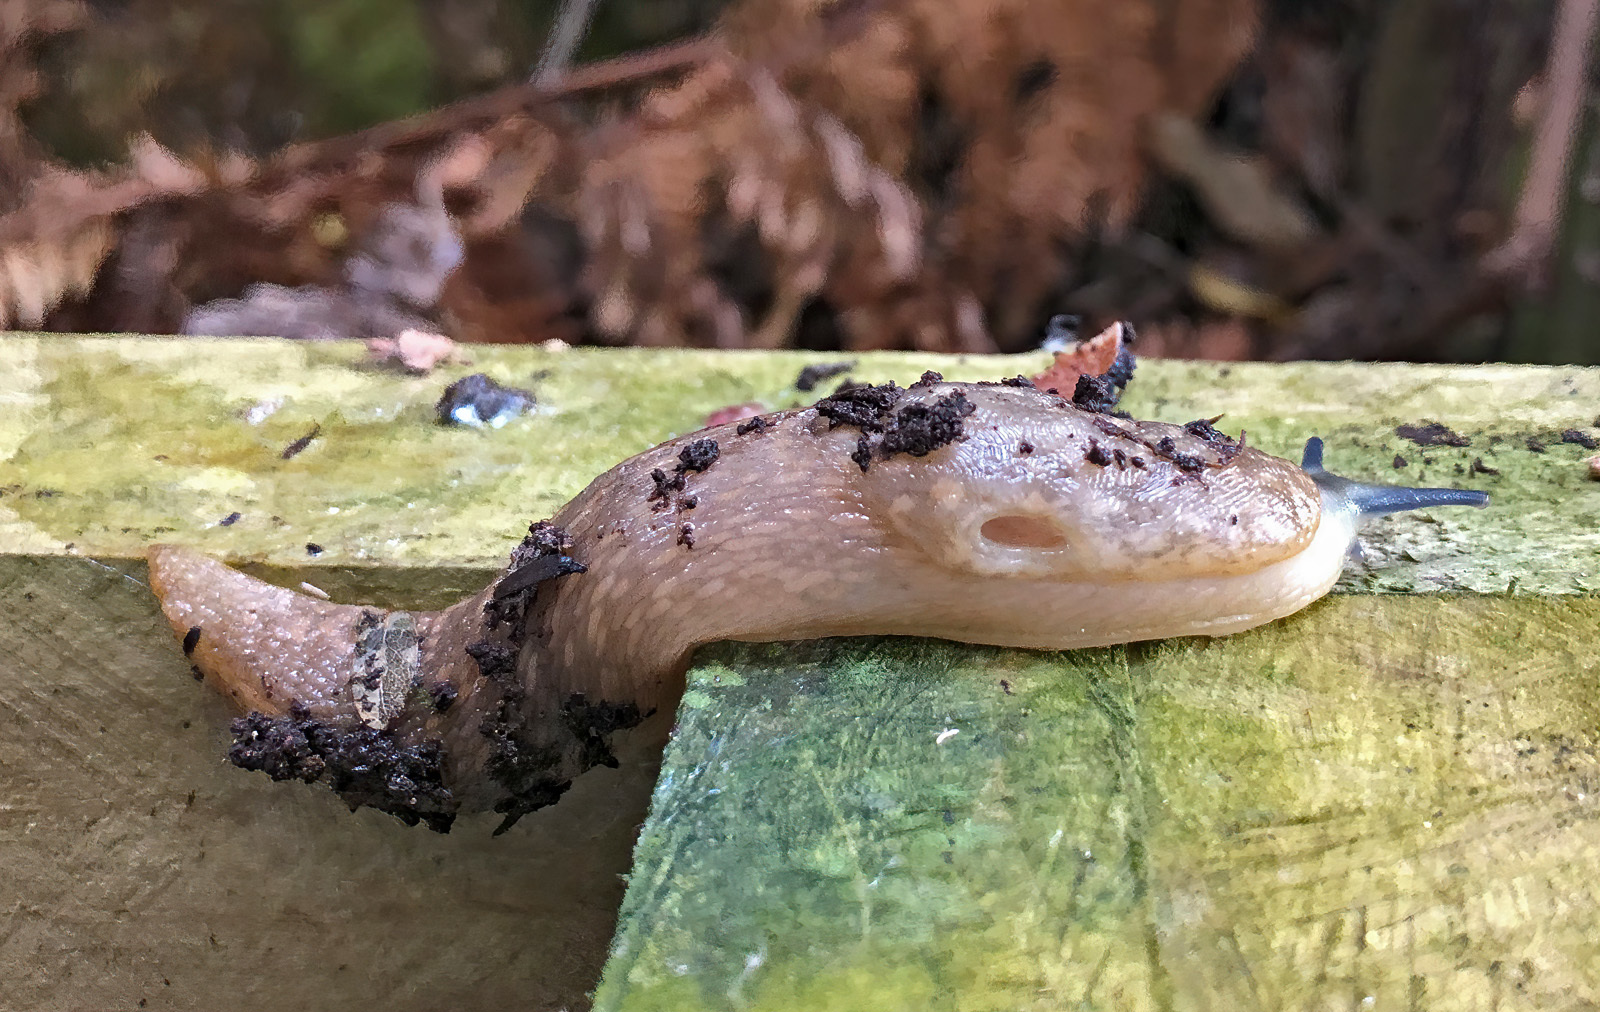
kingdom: Animalia
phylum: Mollusca
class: Gastropoda
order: Stylommatophora
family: Limacidae
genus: Limacus
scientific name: Limacus flavus
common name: Yellow gardenslug
